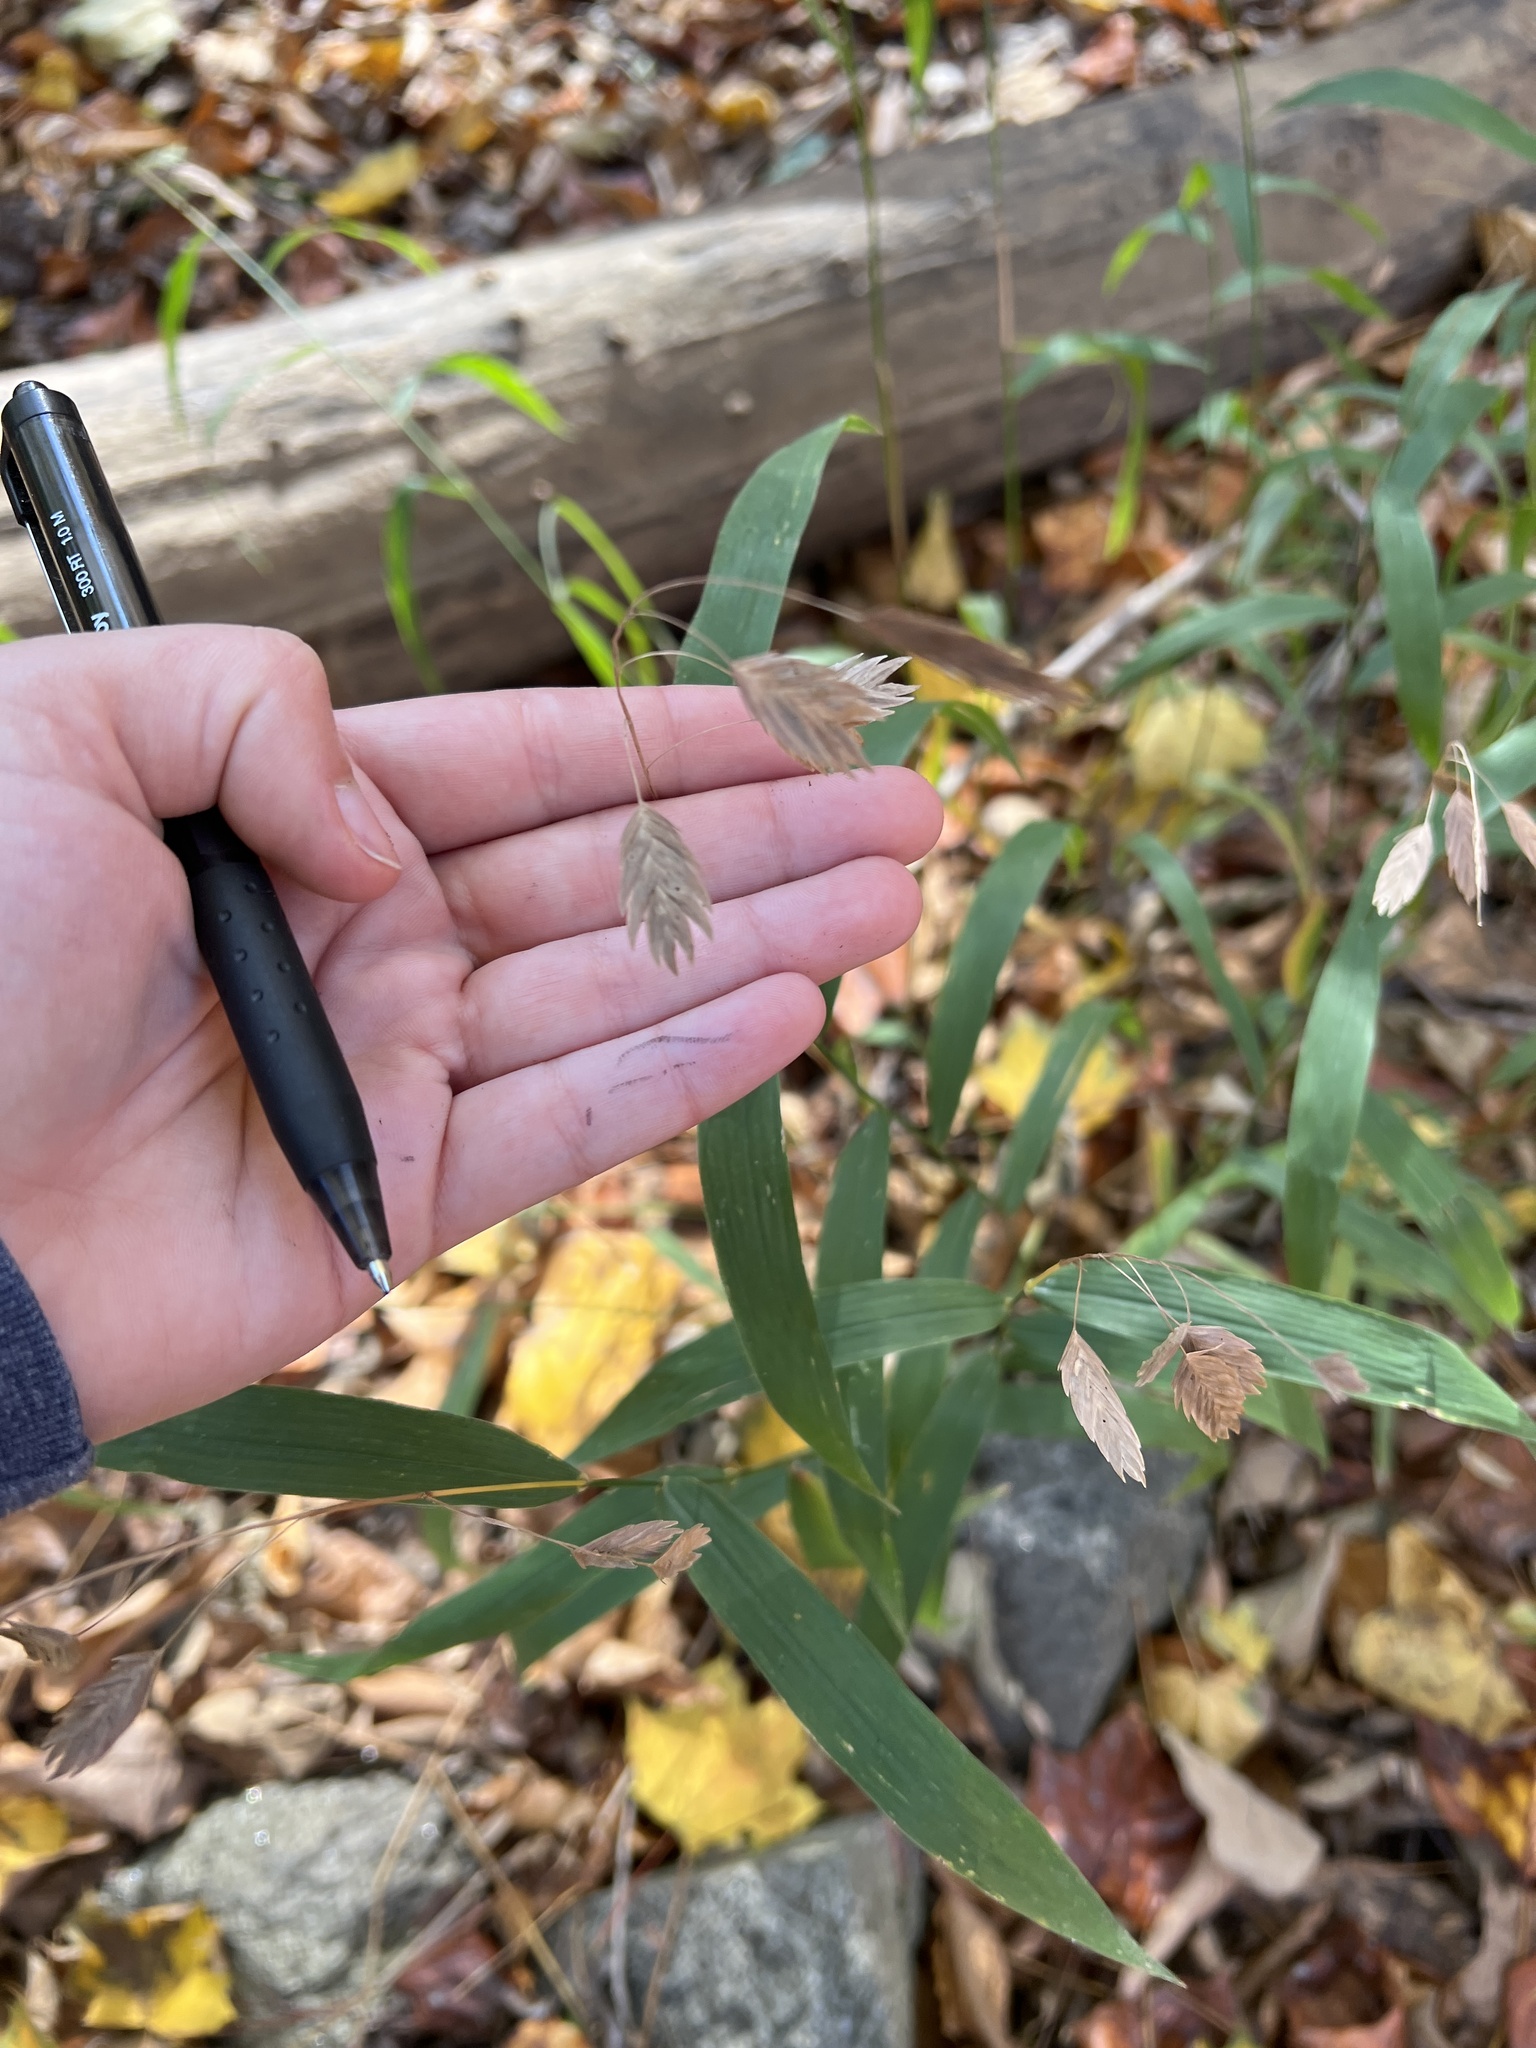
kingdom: Plantae
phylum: Tracheophyta
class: Liliopsida
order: Poales
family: Poaceae
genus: Chasmanthium
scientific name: Chasmanthium latifolium
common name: Broad-leaved chasmanthium
